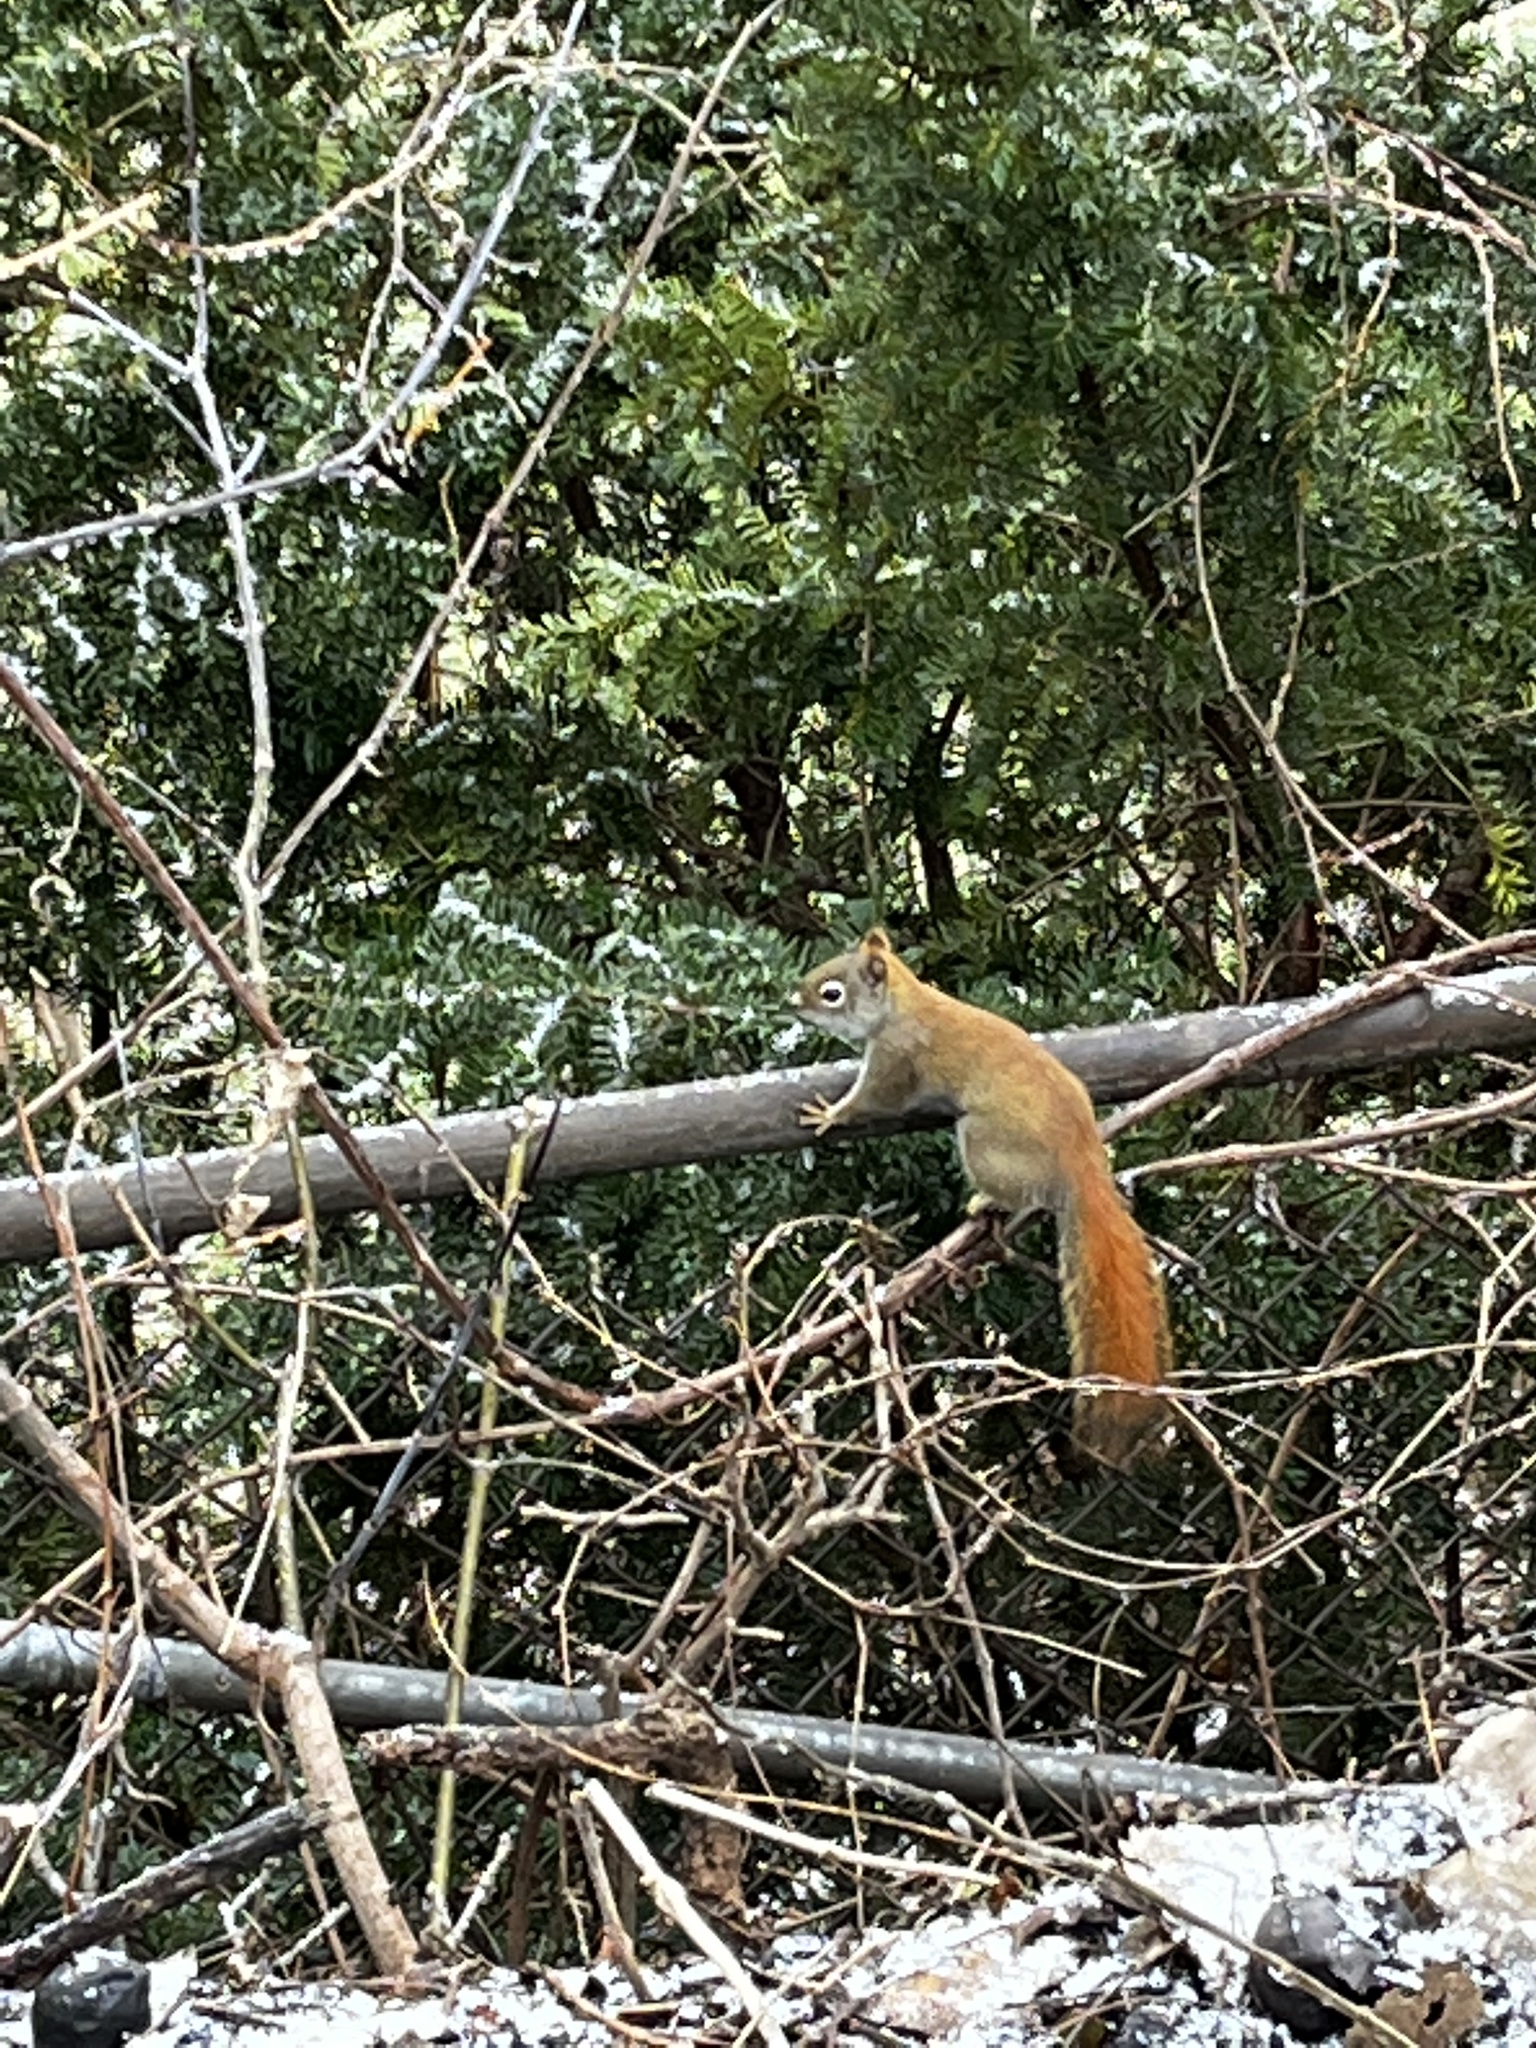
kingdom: Animalia
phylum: Chordata
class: Mammalia
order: Rodentia
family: Sciuridae
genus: Tamiasciurus
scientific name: Tamiasciurus hudsonicus
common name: Red squirrel
